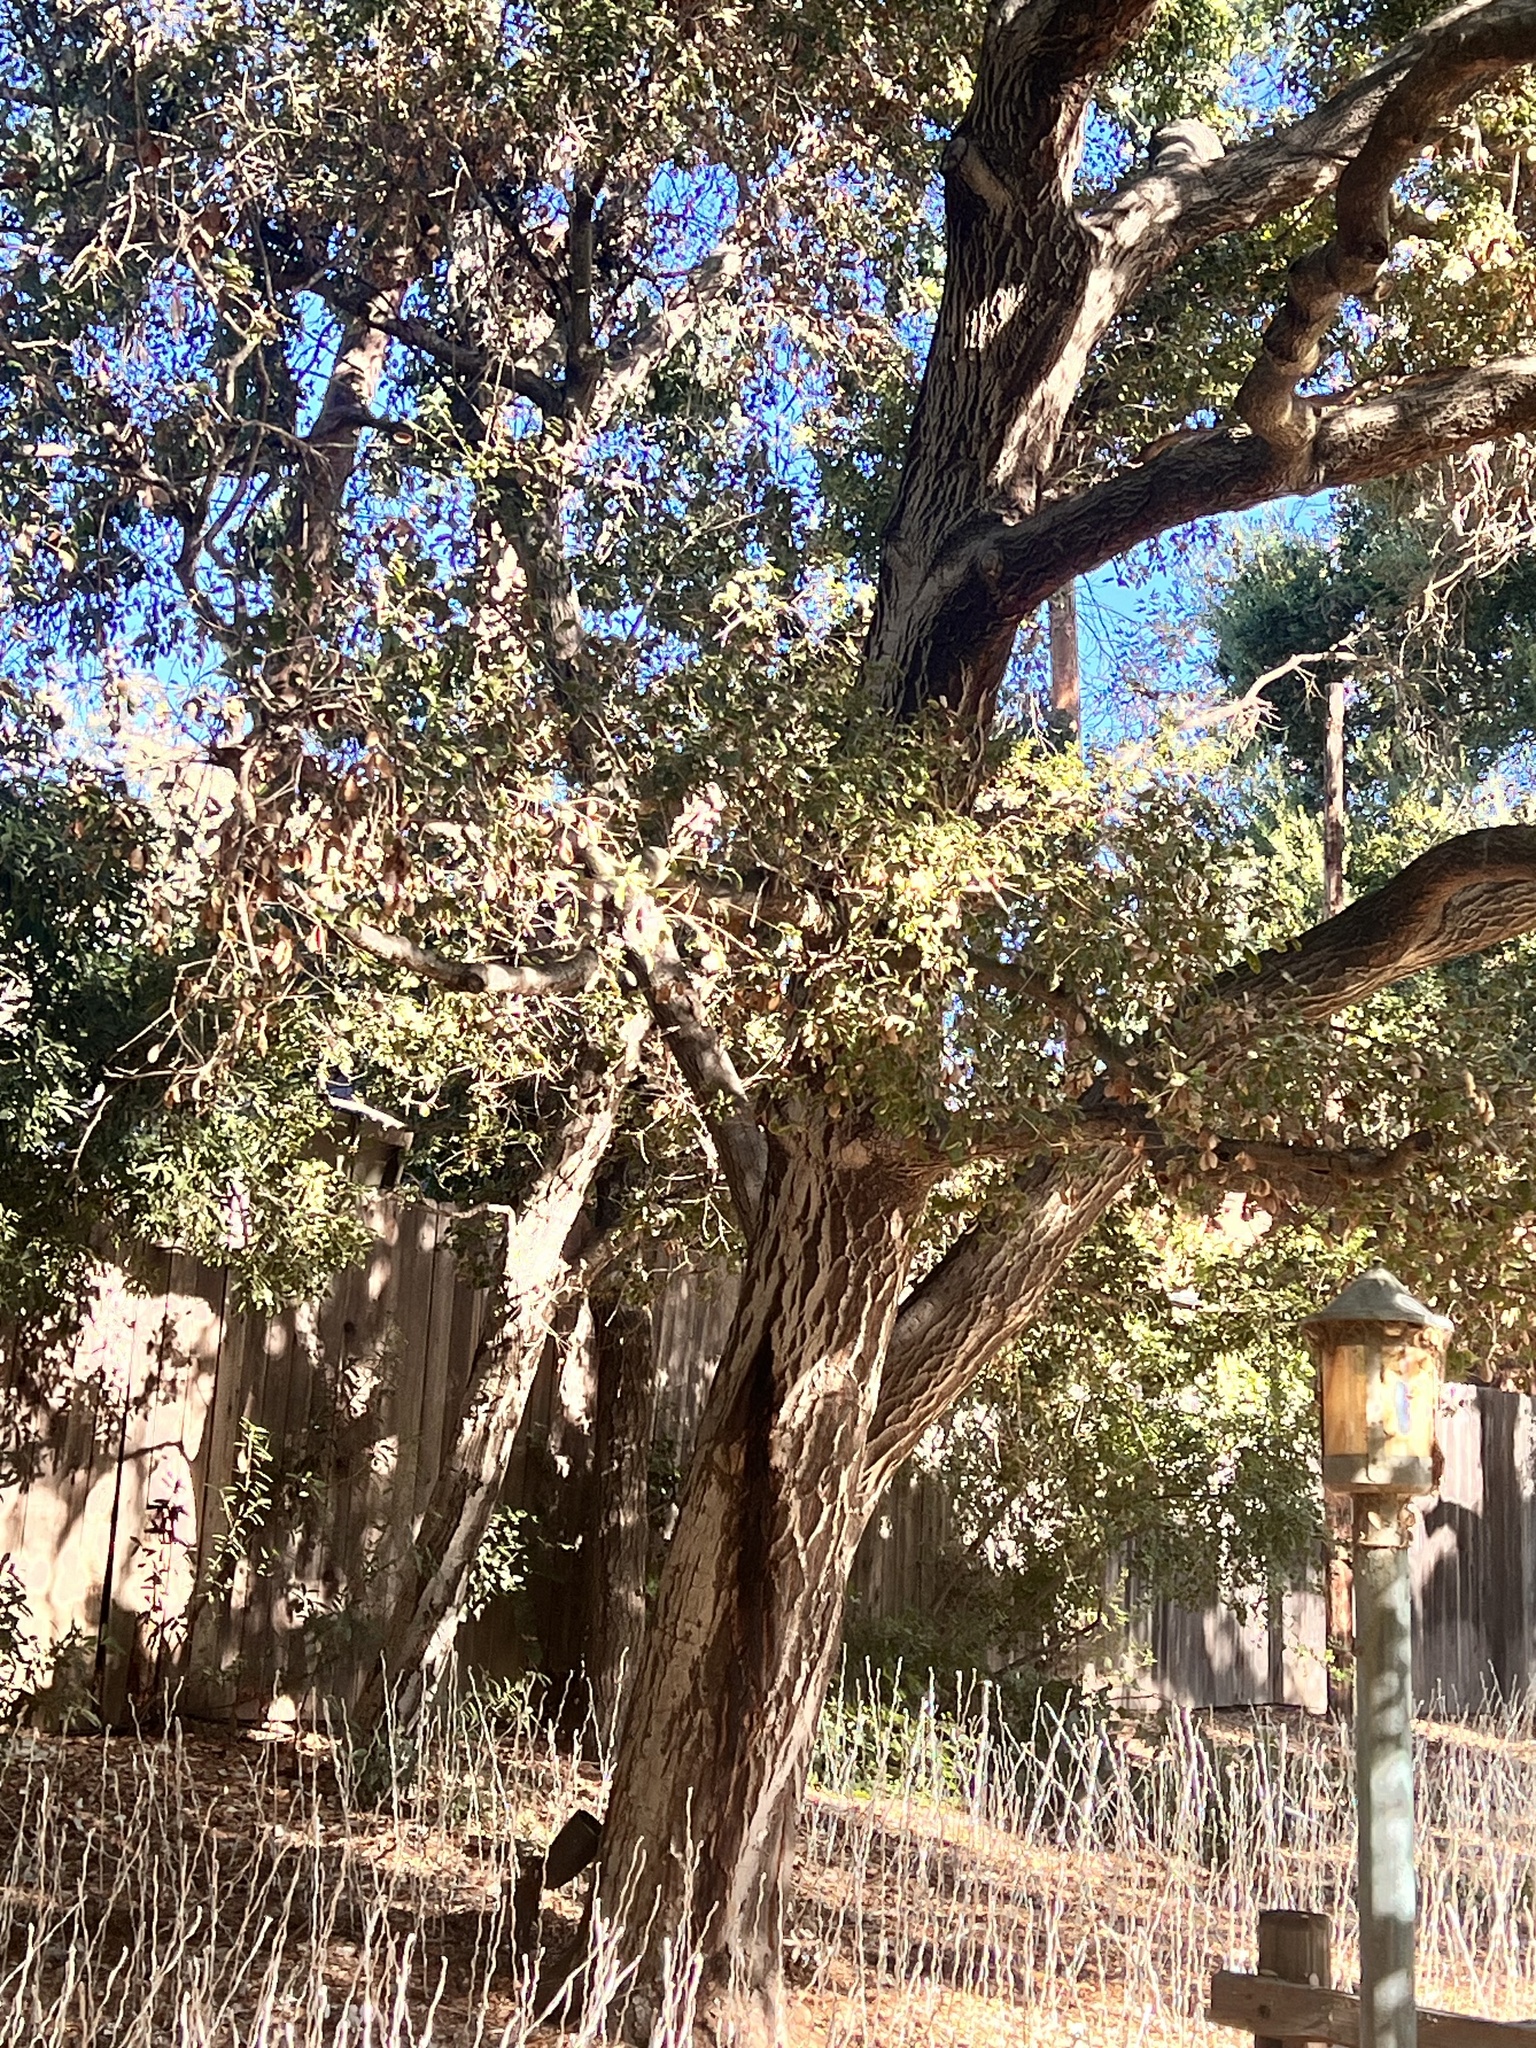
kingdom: Plantae
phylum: Tracheophyta
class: Magnoliopsida
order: Fagales
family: Fagaceae
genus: Quercus
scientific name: Quercus agrifolia
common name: California live oak
